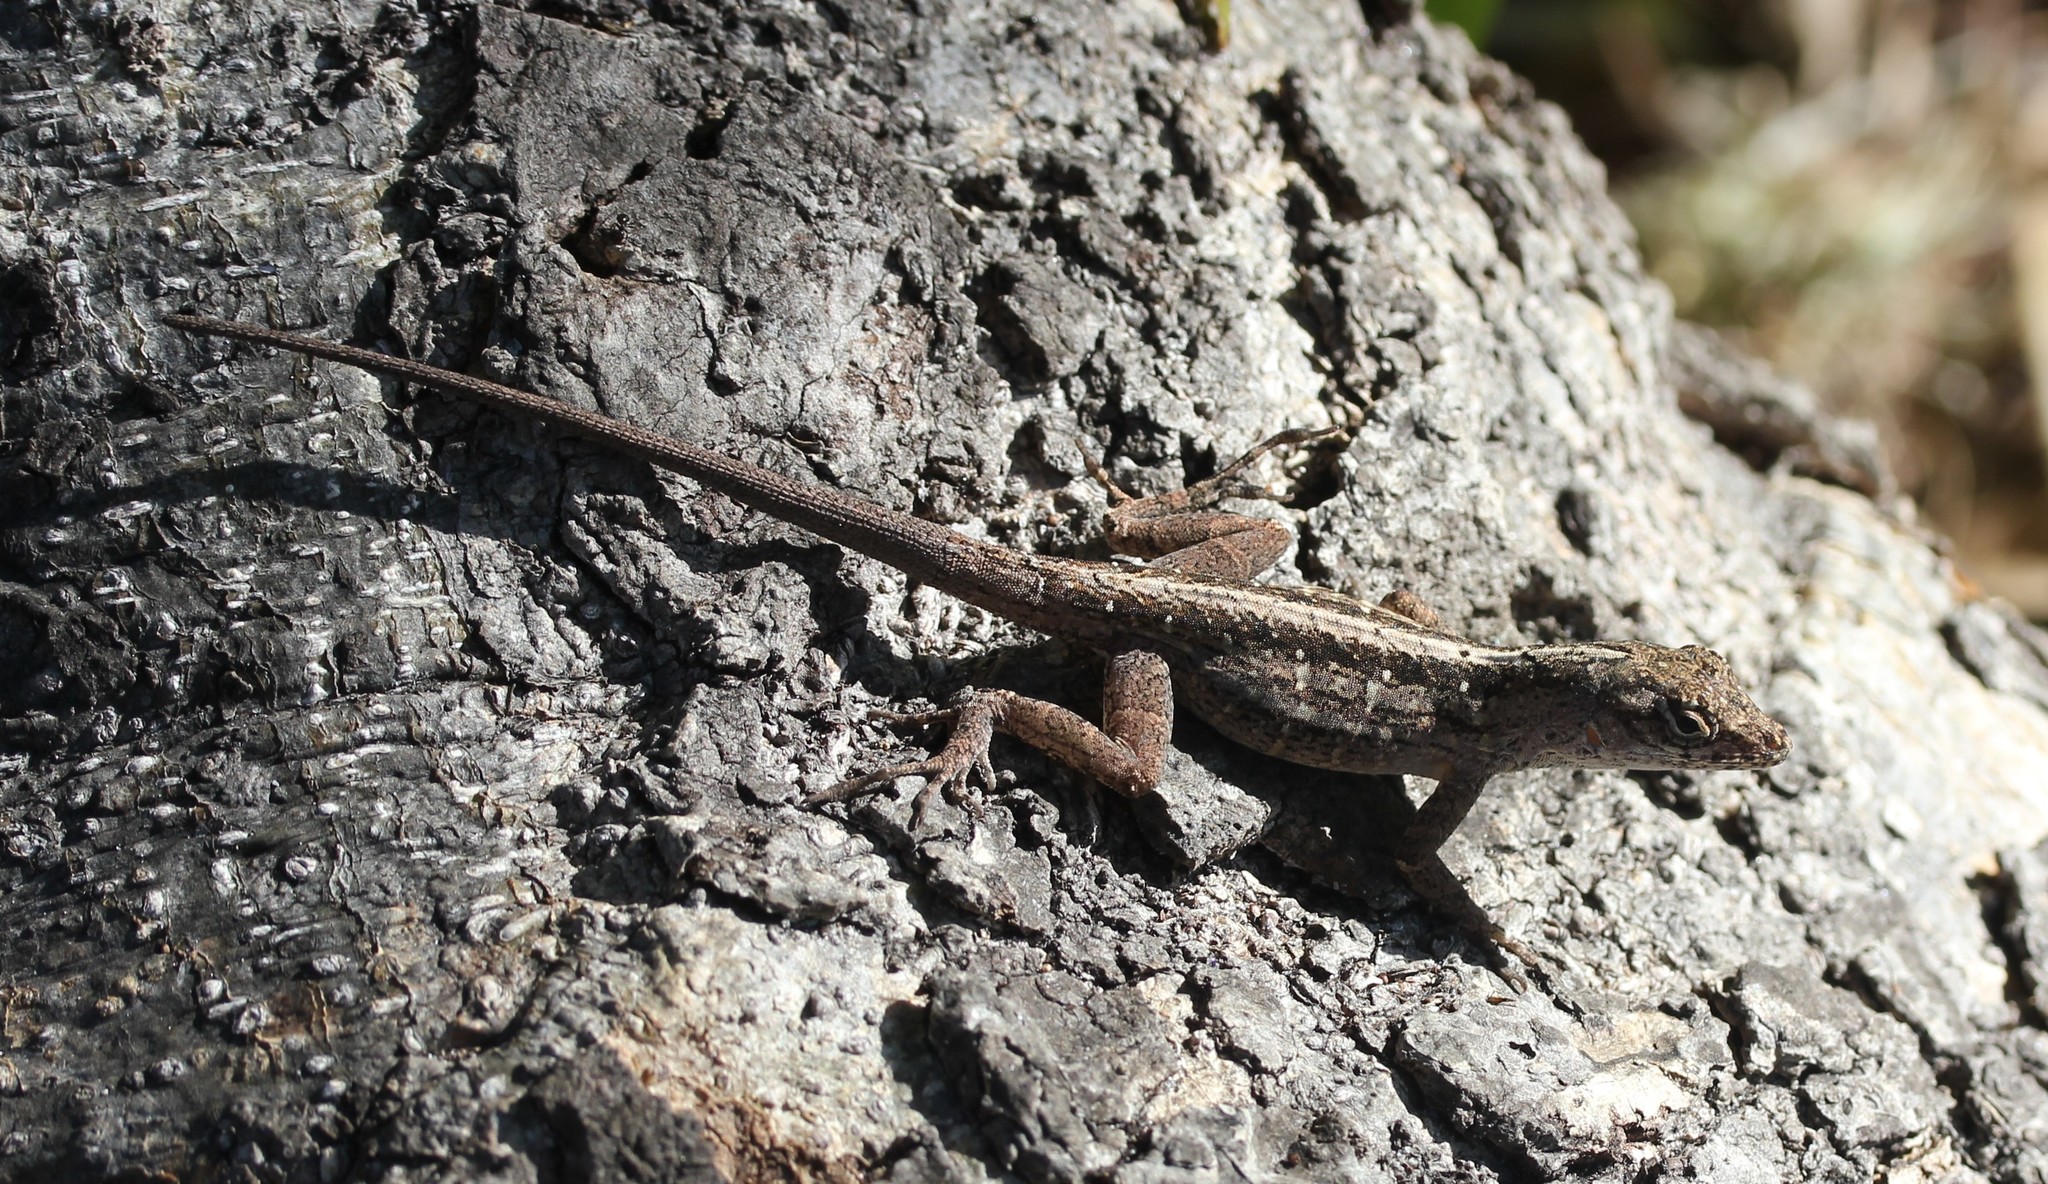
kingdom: Animalia
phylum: Chordata
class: Squamata
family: Dactyloidae
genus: Anolis
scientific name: Anolis sagrei
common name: Brown anole
